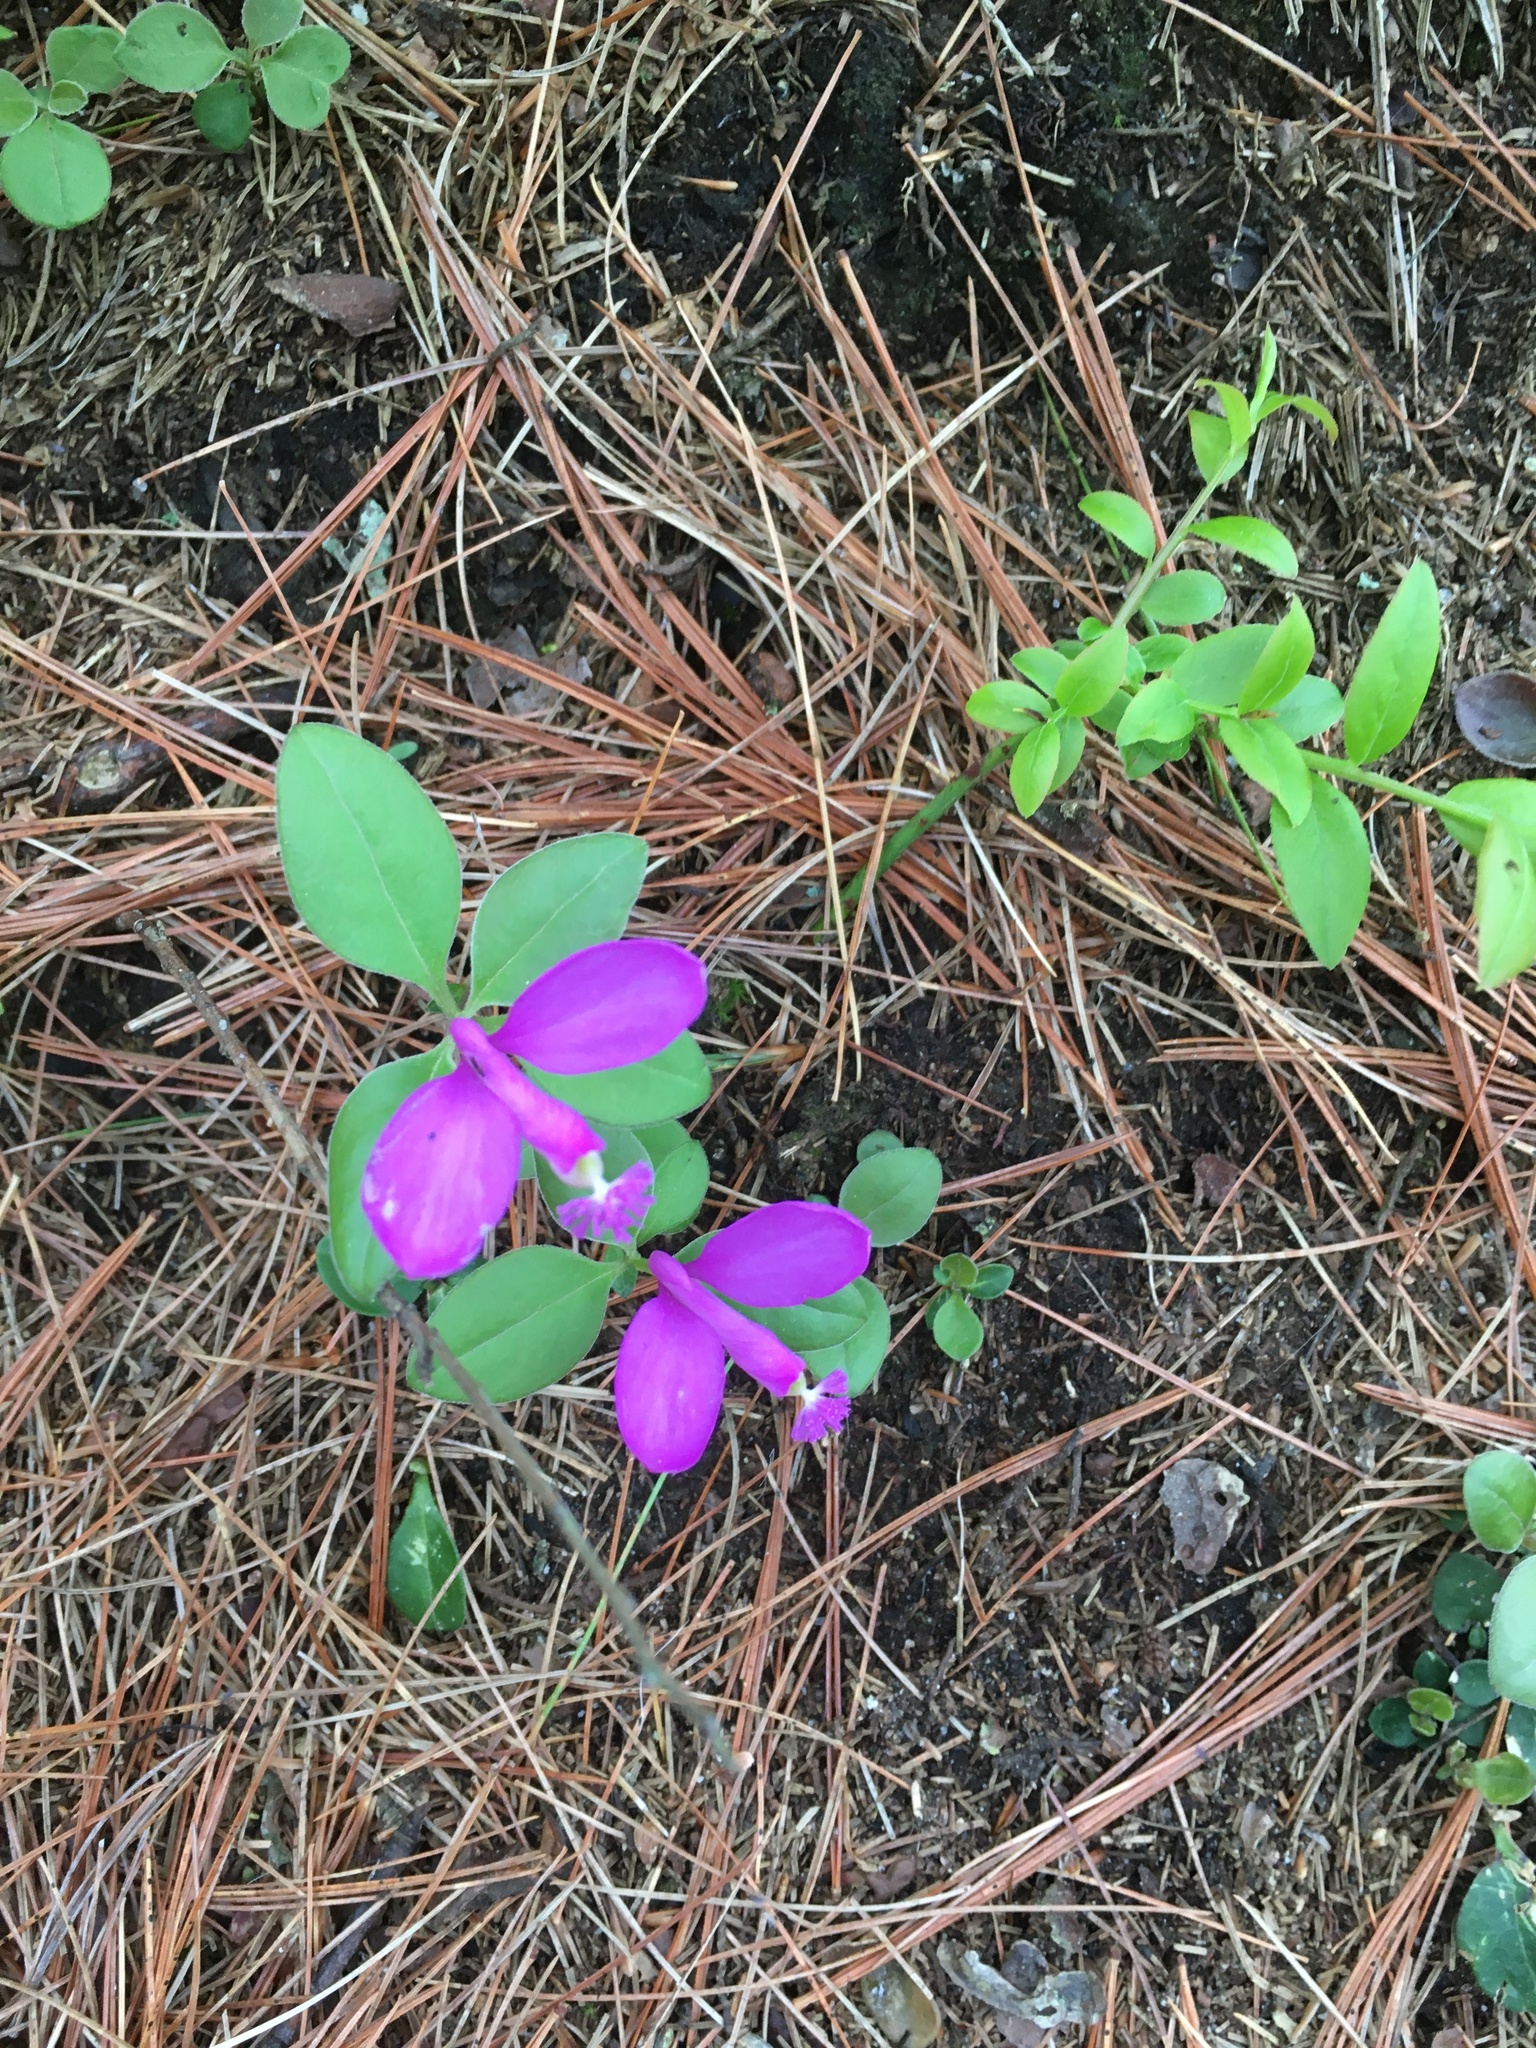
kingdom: Plantae
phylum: Tracheophyta
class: Magnoliopsida
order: Fabales
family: Polygalaceae
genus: Polygaloides
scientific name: Polygaloides paucifolia
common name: Bird-on-the-wing
